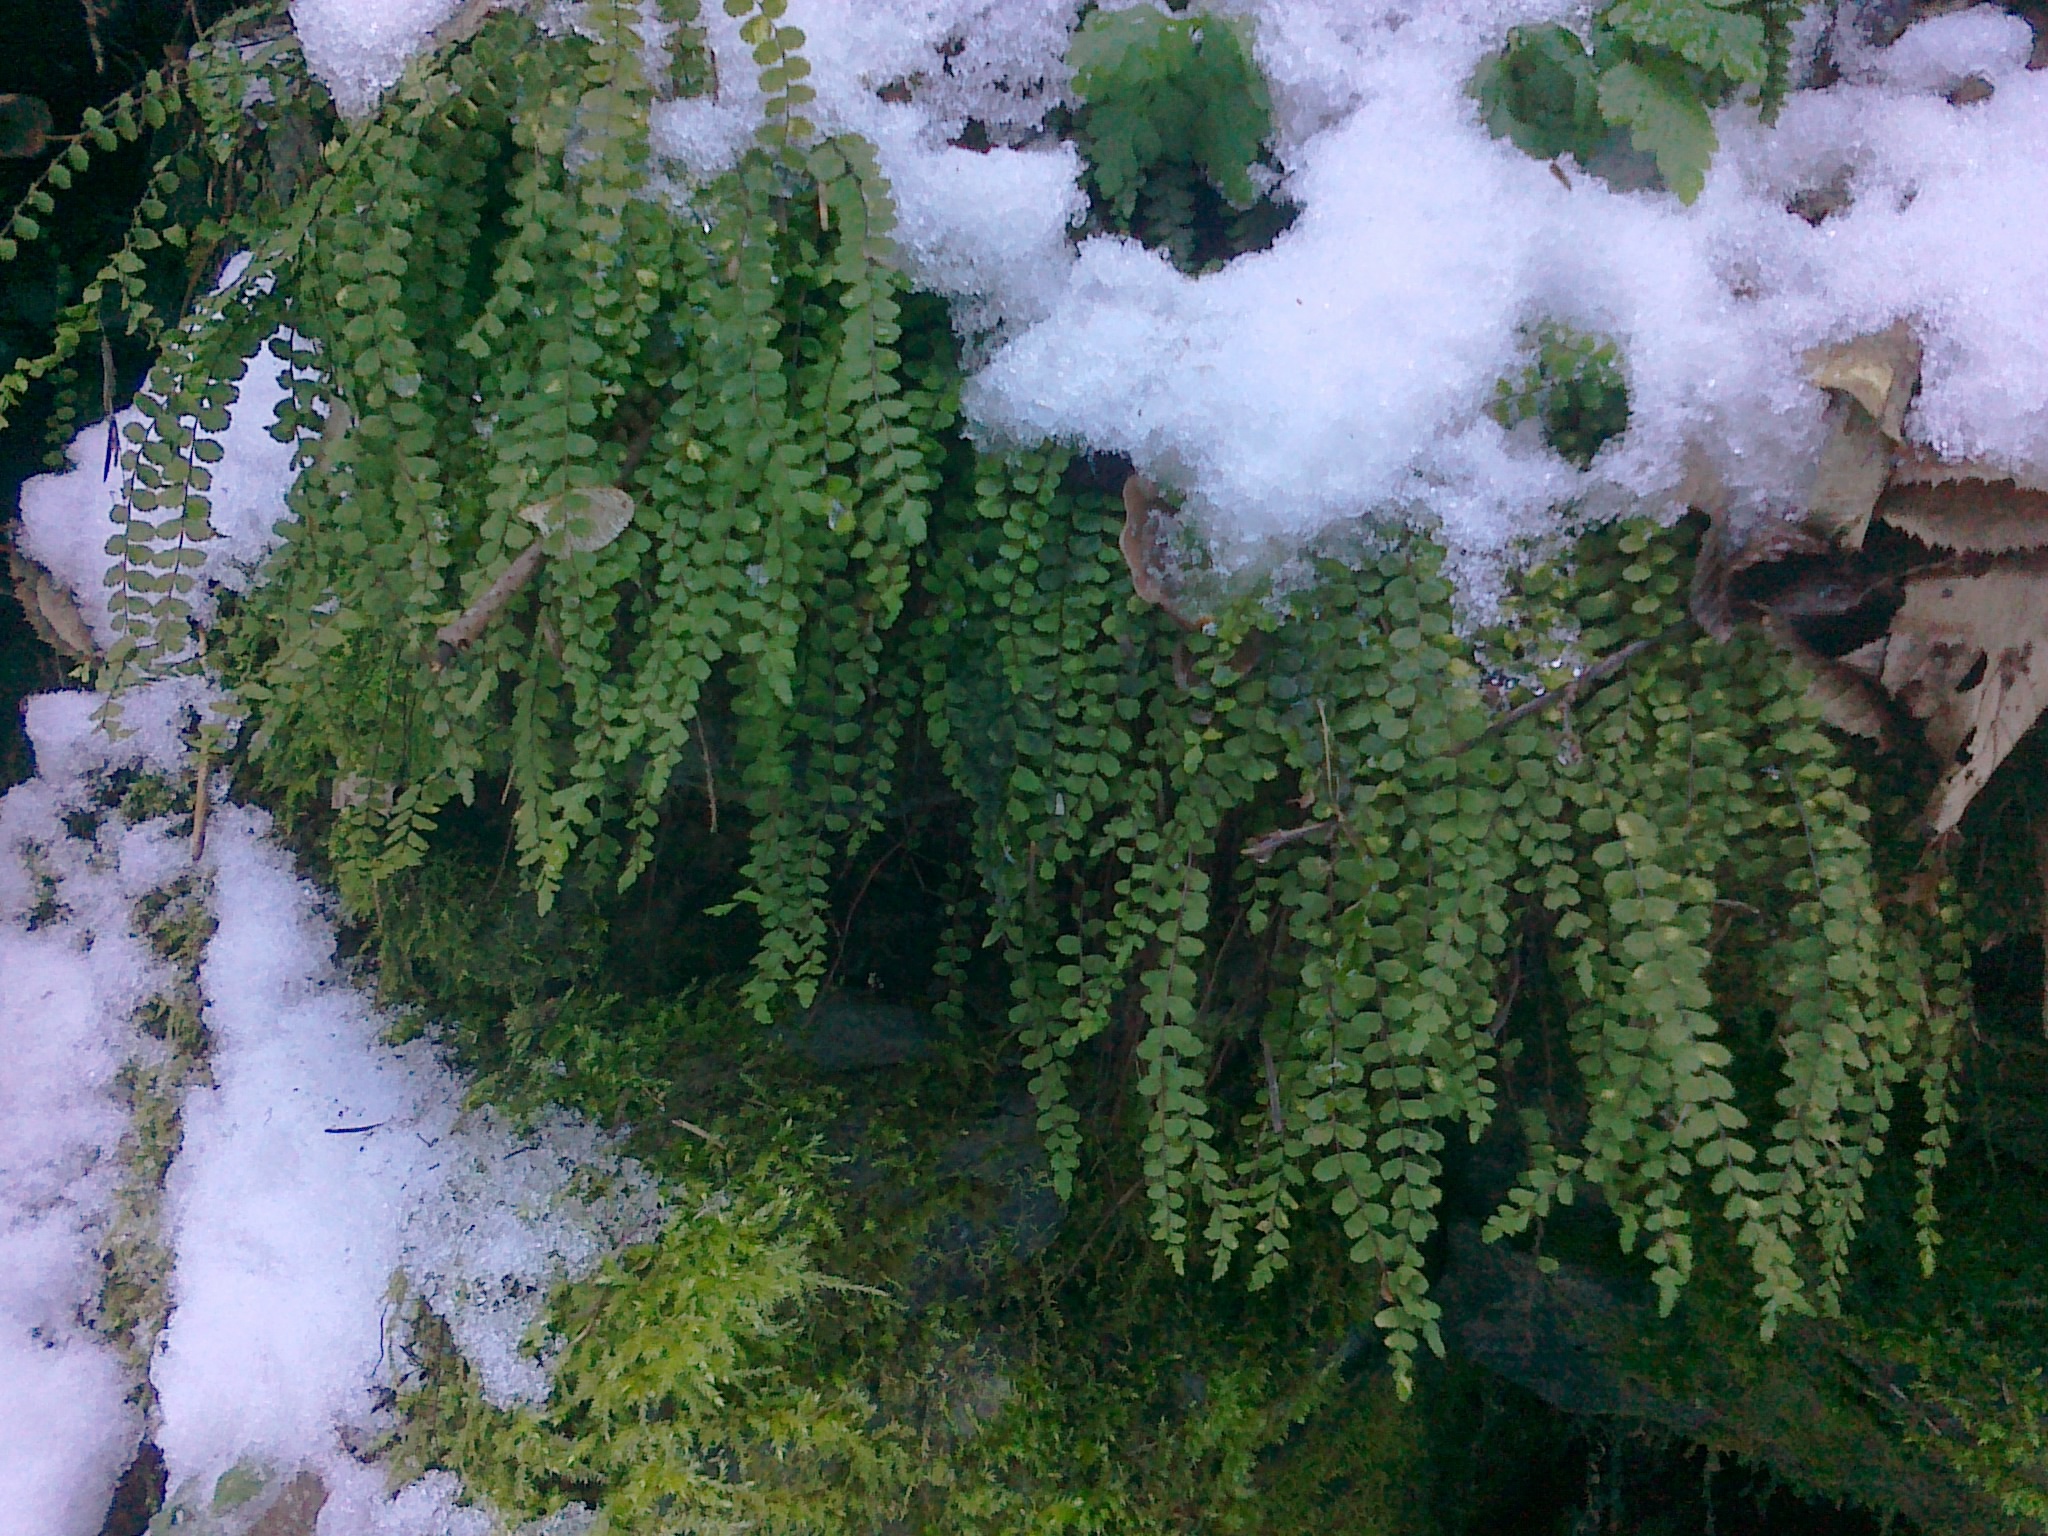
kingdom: Plantae
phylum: Tracheophyta
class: Polypodiopsida
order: Polypodiales
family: Aspleniaceae
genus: Asplenium
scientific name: Asplenium trichomanes
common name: Maidenhair spleenwort
